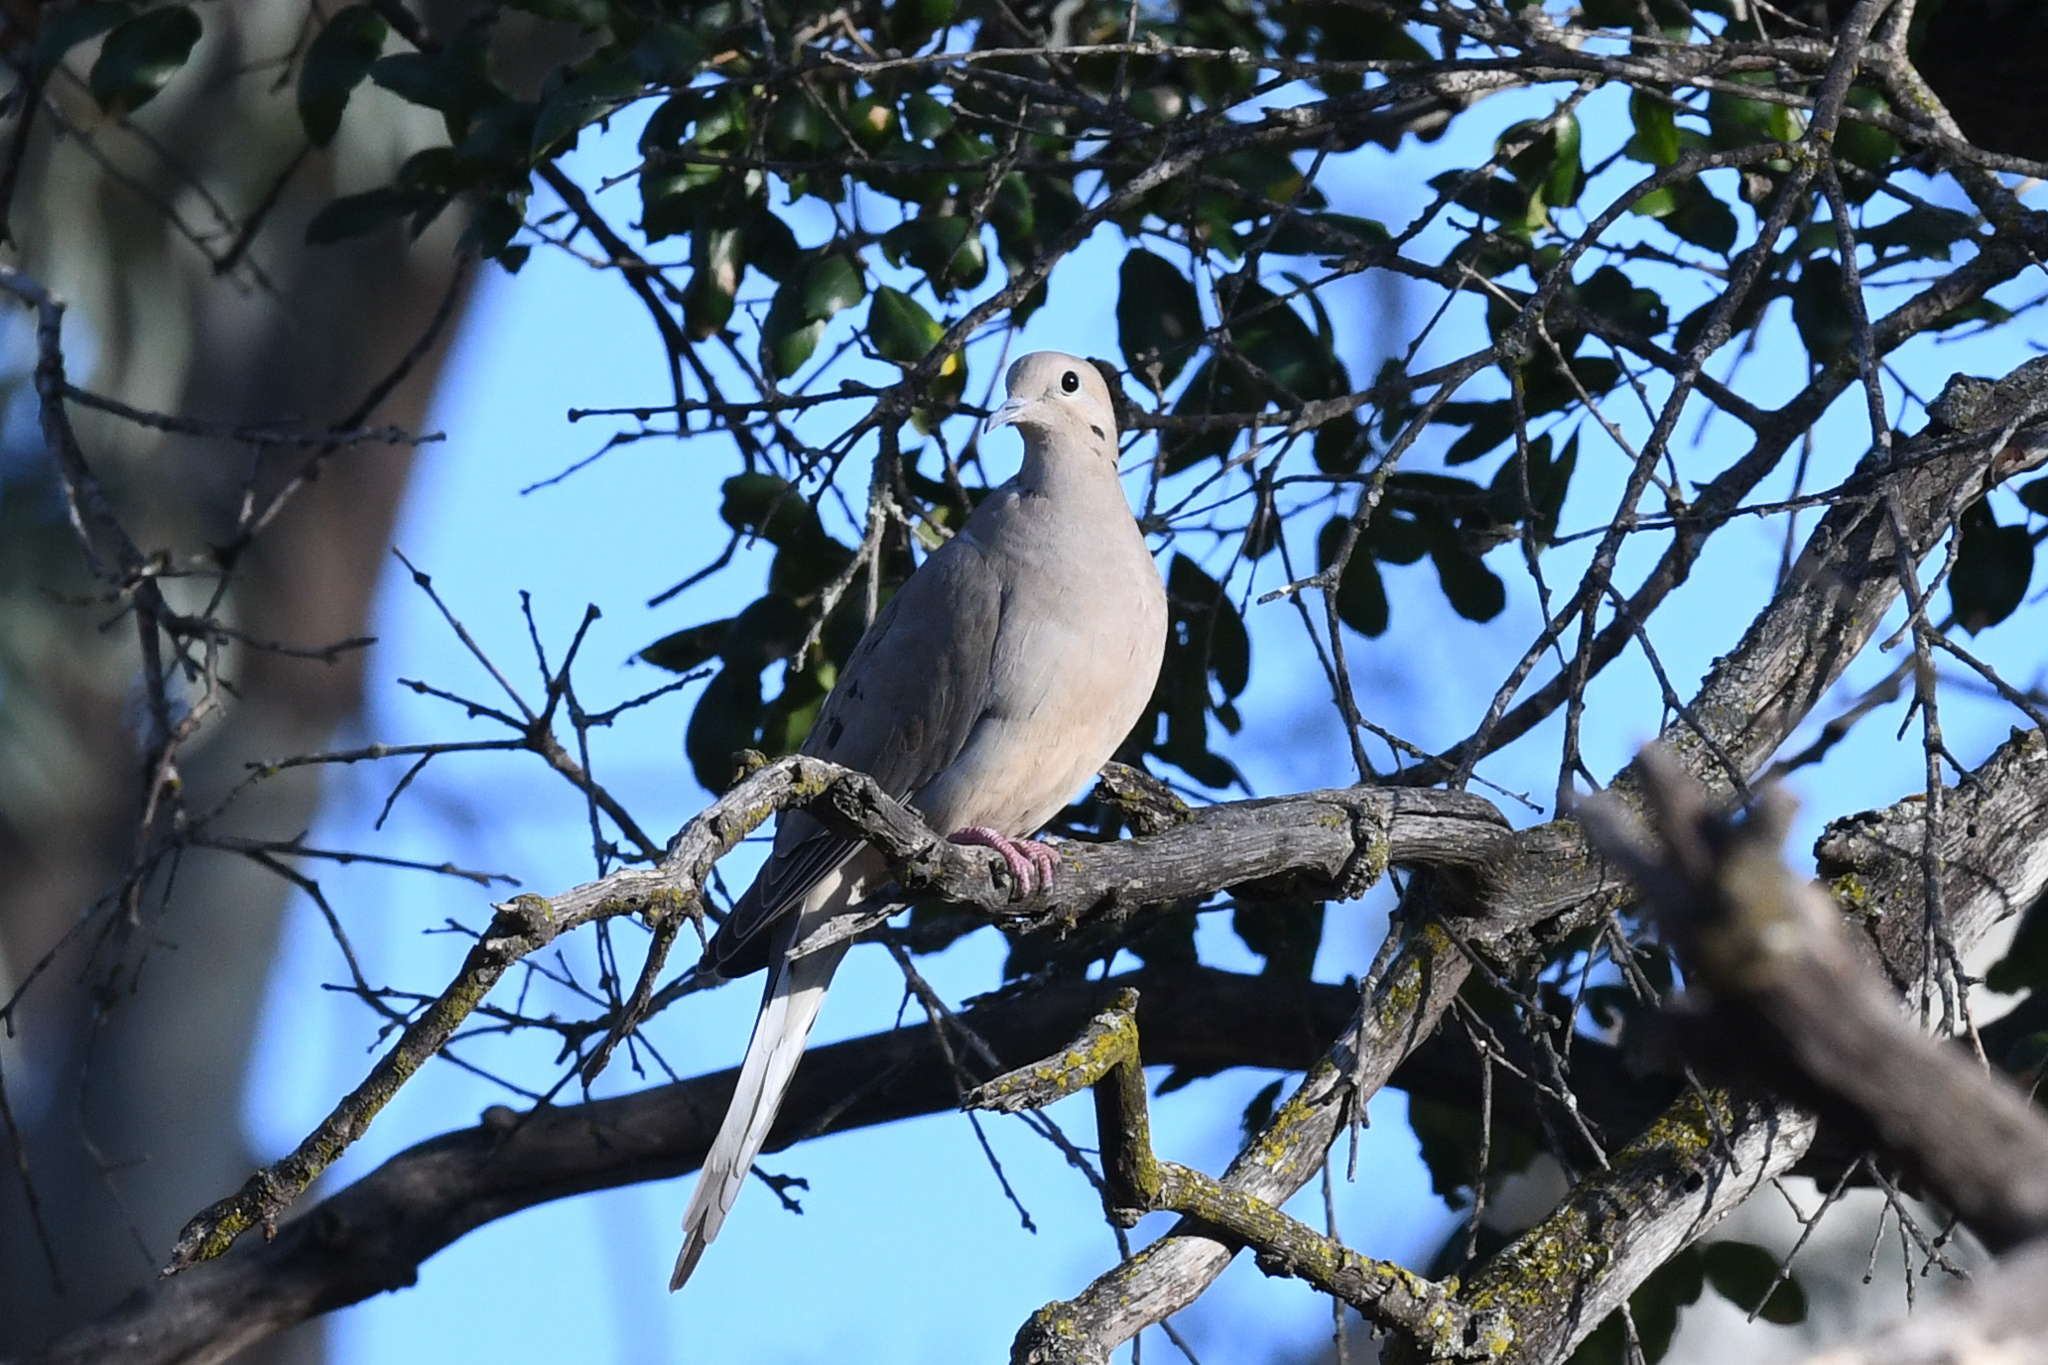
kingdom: Animalia
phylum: Chordata
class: Aves
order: Columbiformes
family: Columbidae
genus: Zenaida
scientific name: Zenaida macroura
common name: Mourning dove
